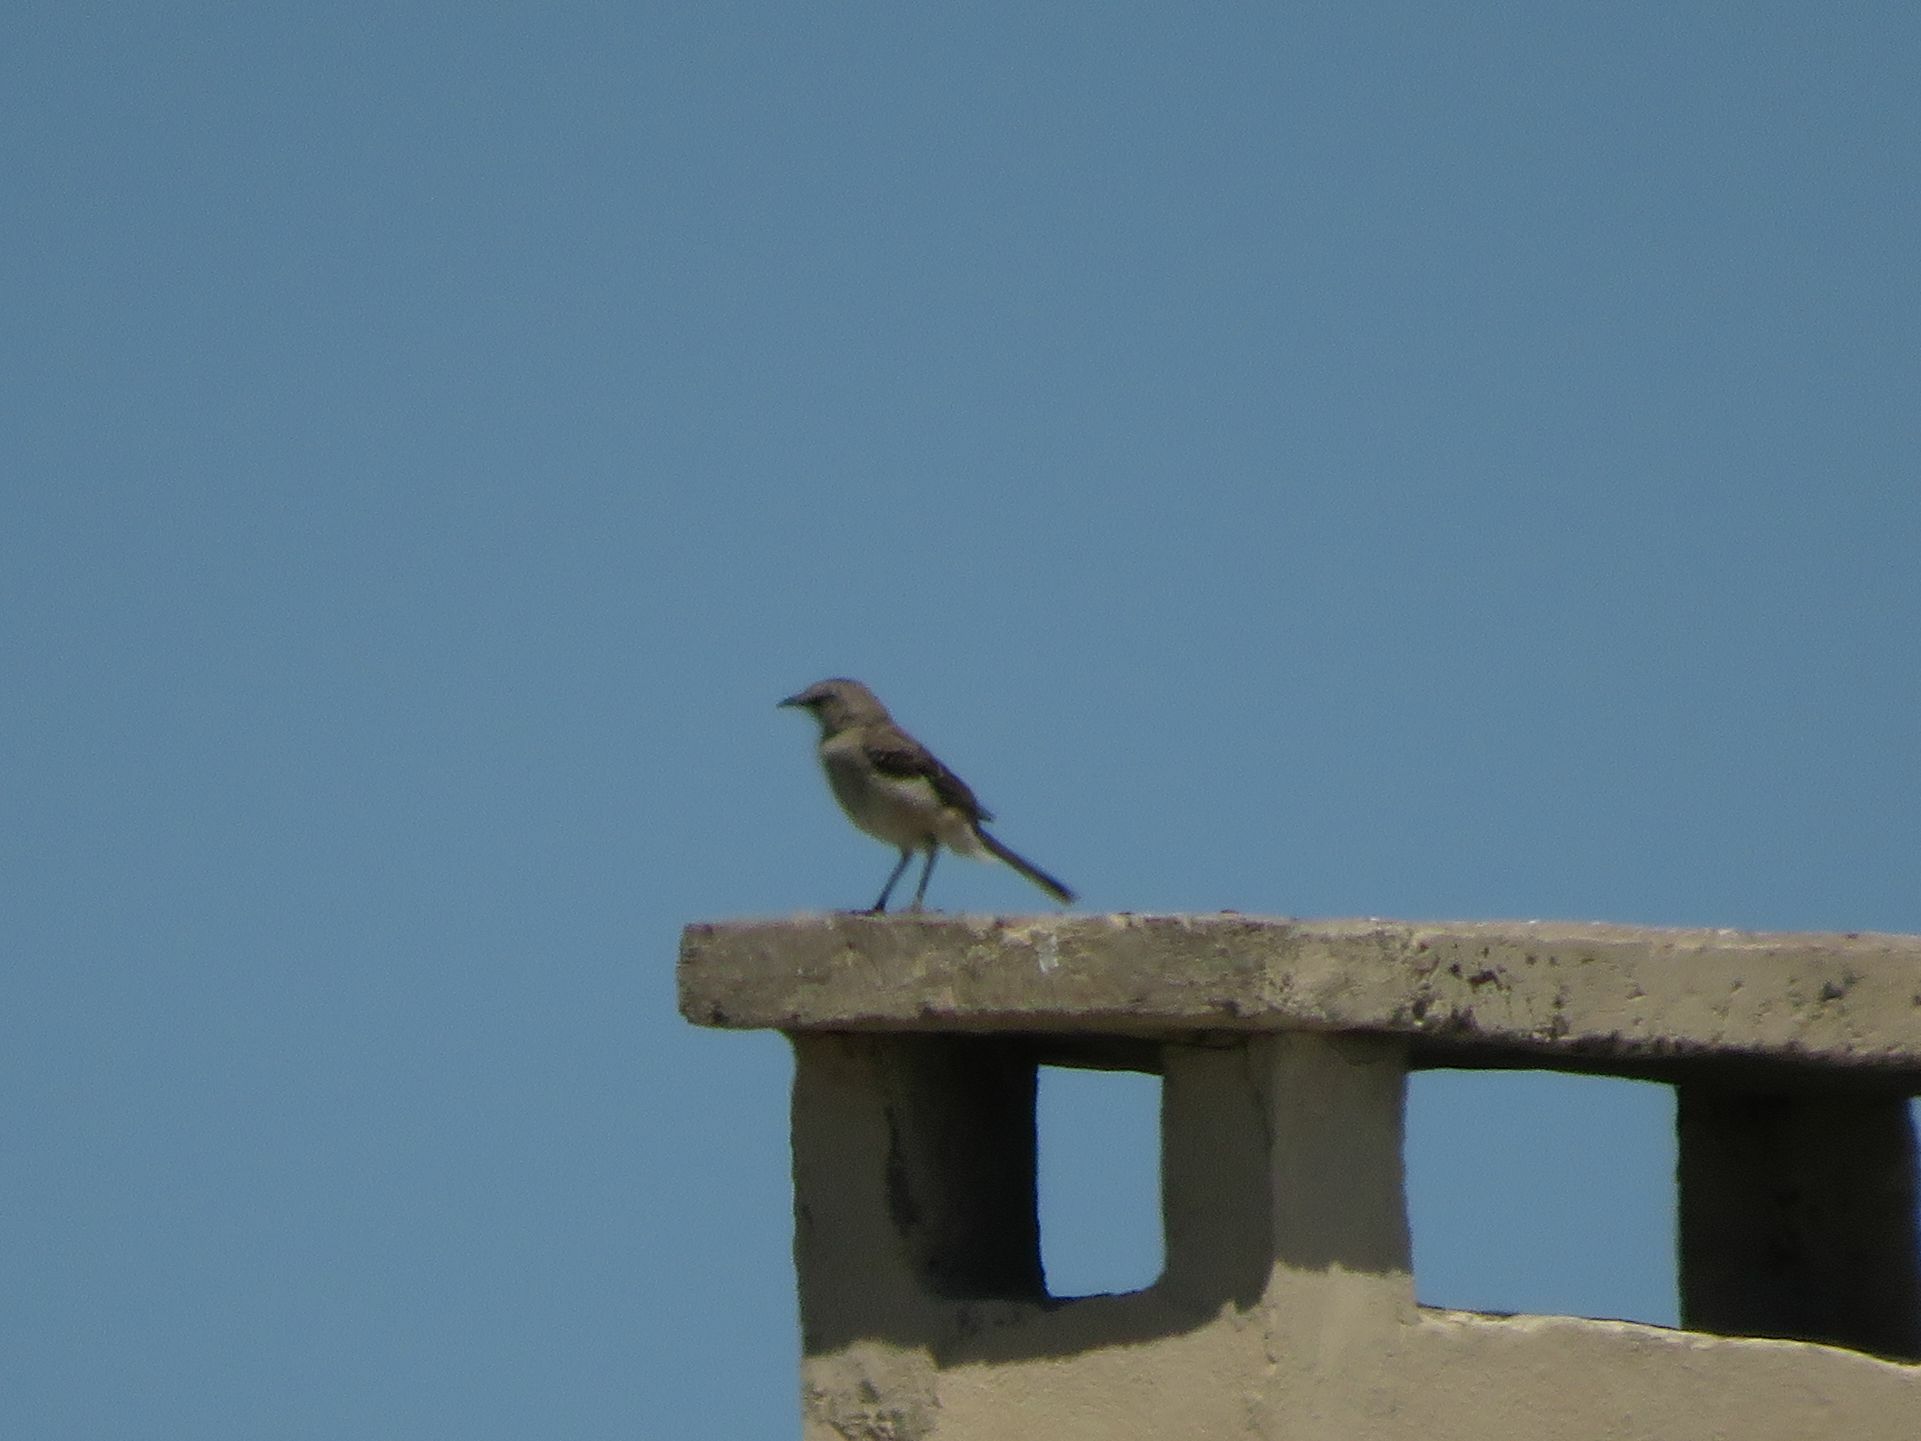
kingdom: Animalia
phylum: Chordata
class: Aves
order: Passeriformes
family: Mimidae
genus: Mimus
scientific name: Mimus patagonicus
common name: Patagonian mockingbird
